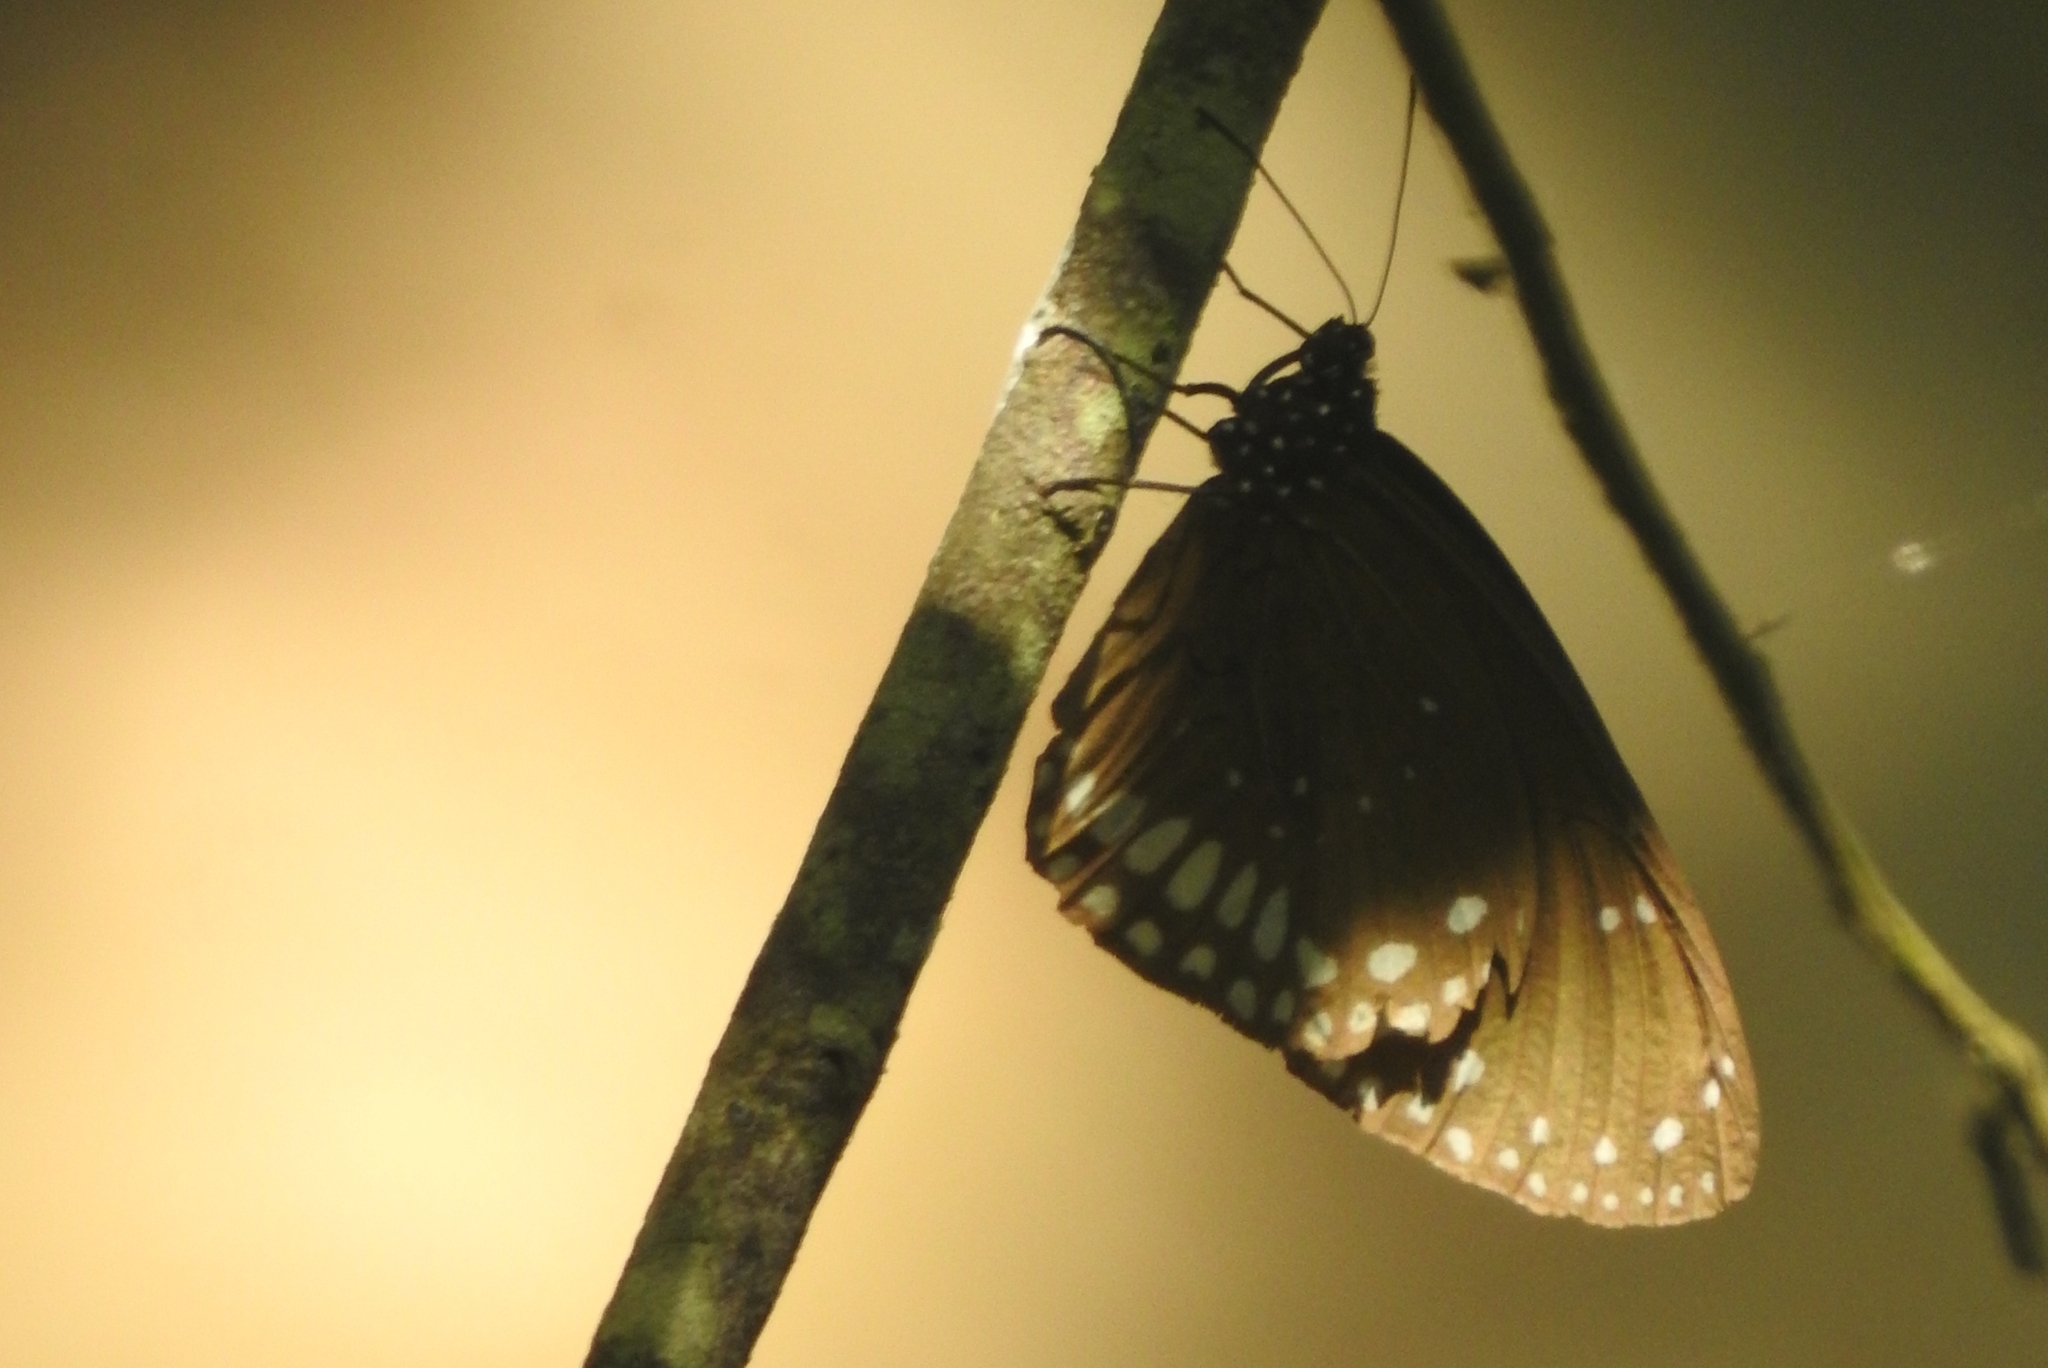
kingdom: Animalia
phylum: Arthropoda
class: Insecta
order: Lepidoptera
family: Nymphalidae
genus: Euploea
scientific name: Euploea core
